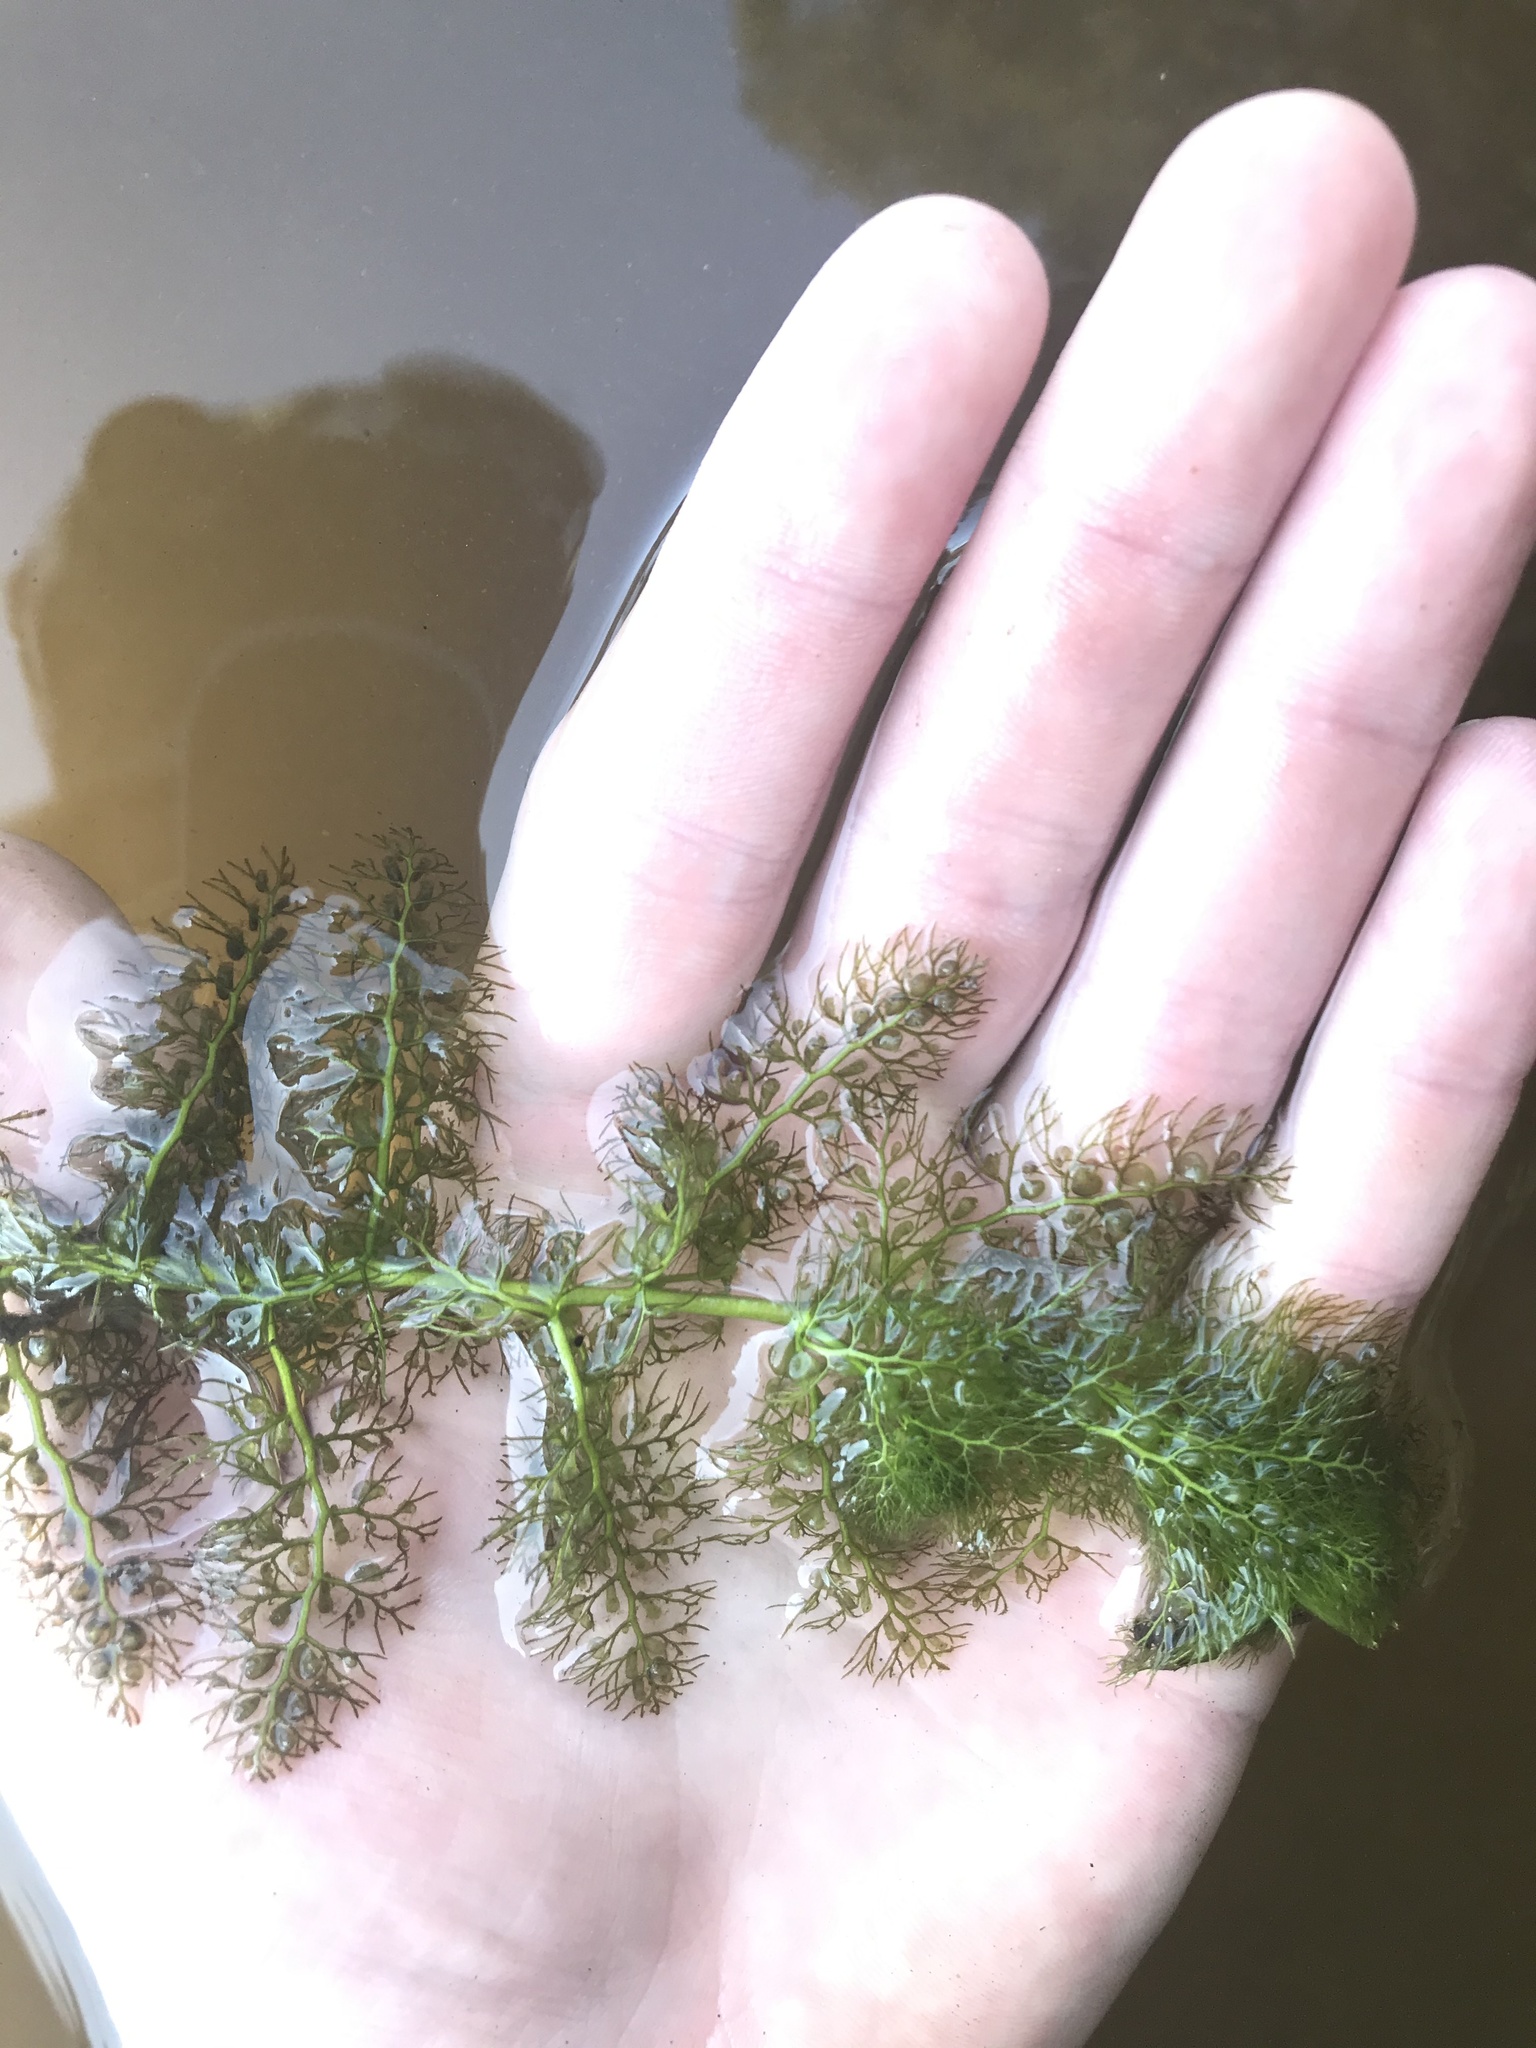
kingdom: Plantae
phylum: Tracheophyta
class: Magnoliopsida
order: Lamiales
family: Lentibulariaceae
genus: Utricularia
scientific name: Utricularia macrorhiza
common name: Common bladderwort
